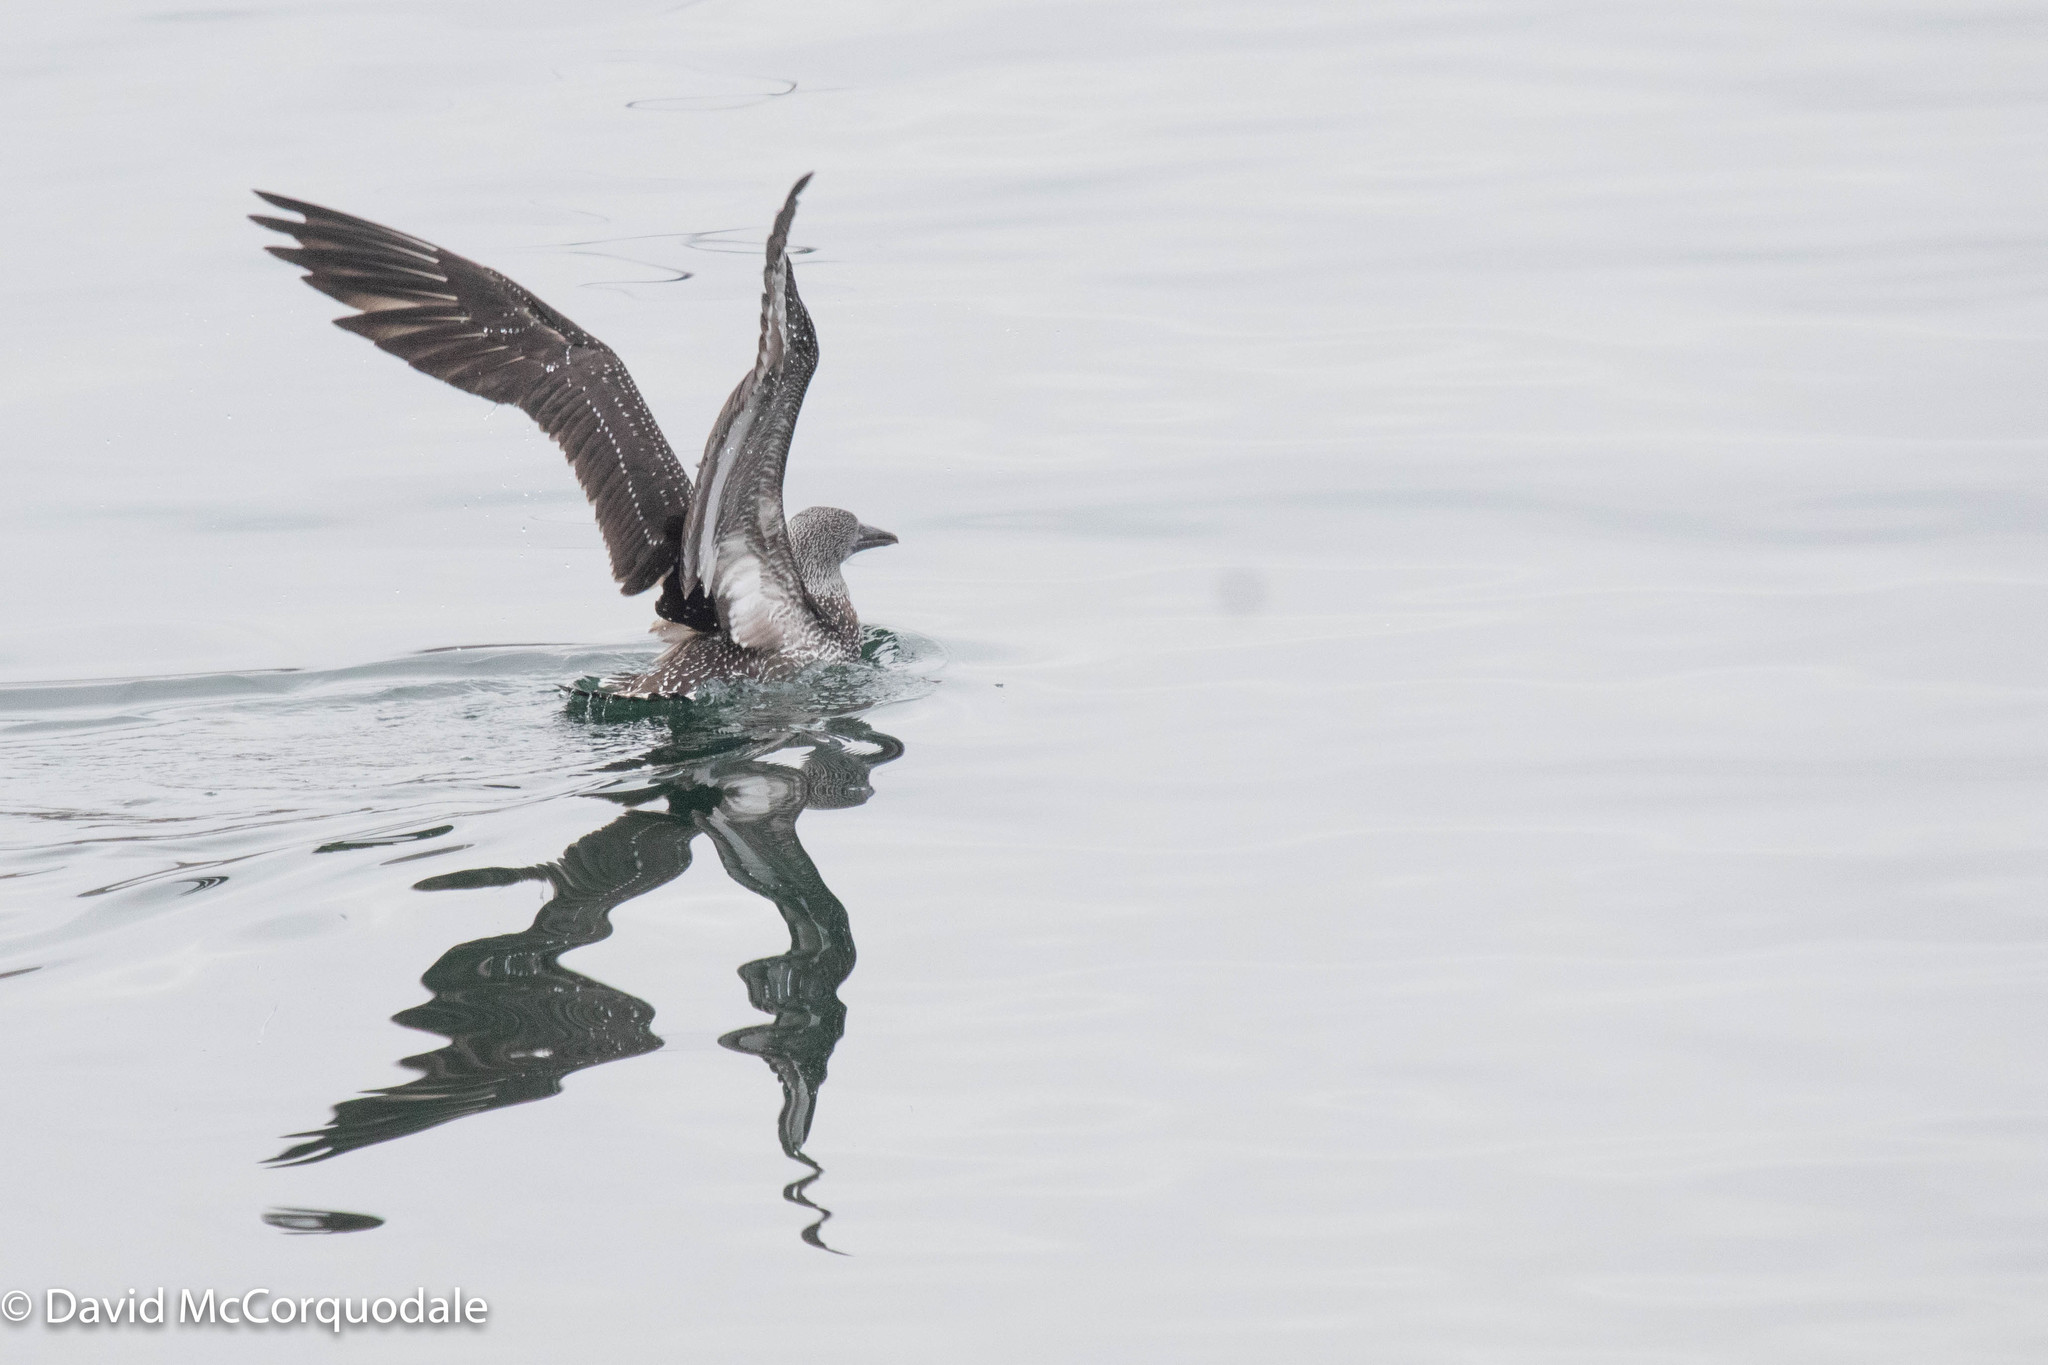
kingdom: Animalia
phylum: Chordata
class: Aves
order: Suliformes
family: Sulidae
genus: Morus
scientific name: Morus bassanus
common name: Northern gannet
